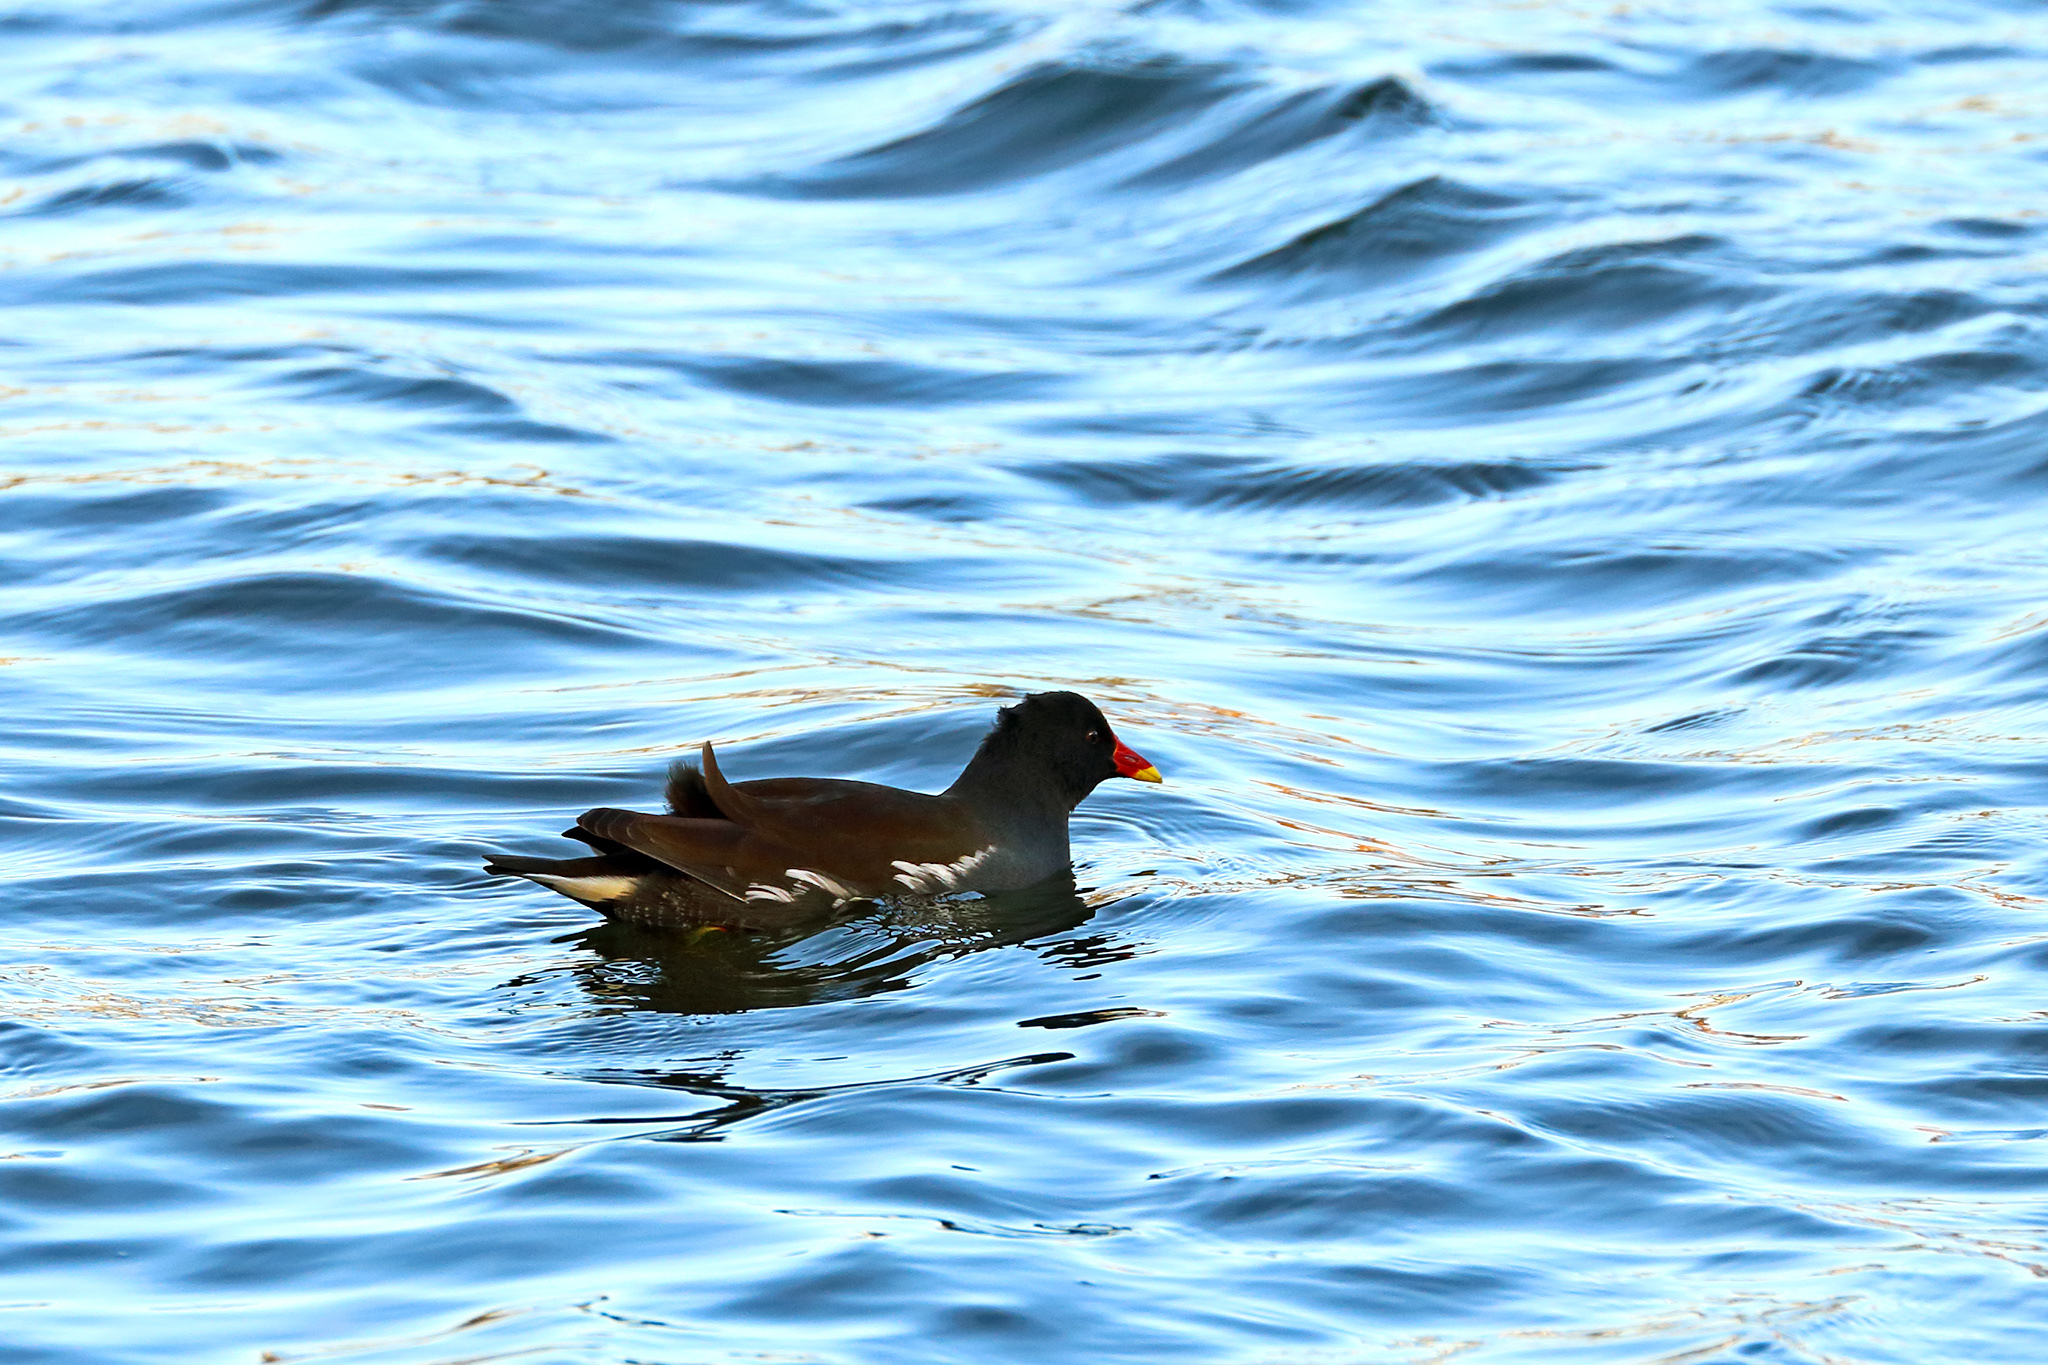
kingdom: Animalia
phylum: Chordata
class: Aves
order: Gruiformes
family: Rallidae
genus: Gallinula
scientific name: Gallinula chloropus
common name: Common moorhen
